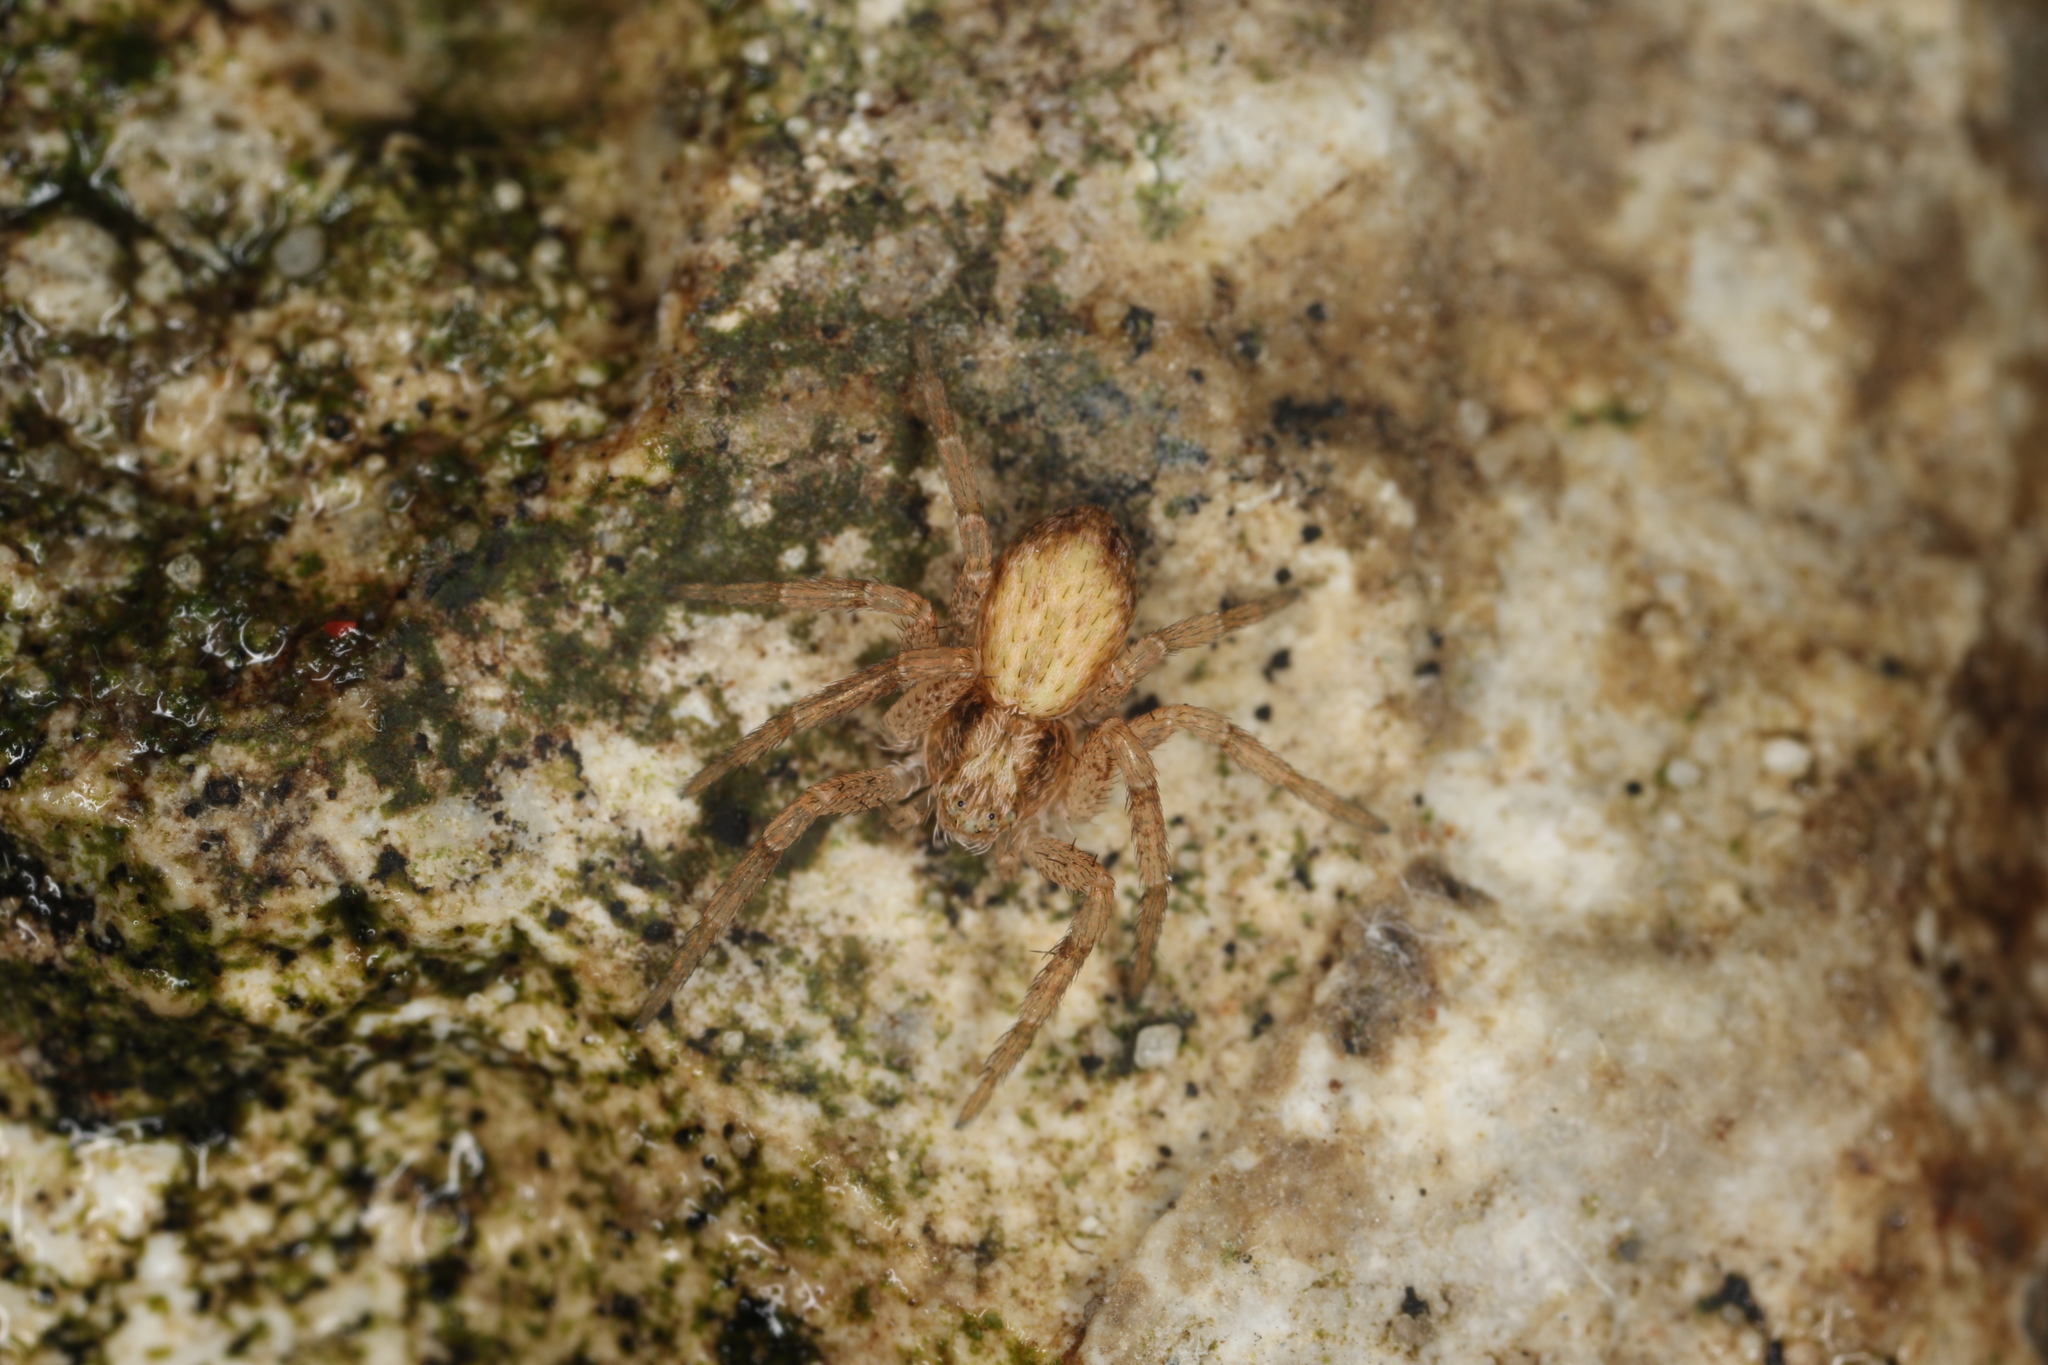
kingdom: Animalia
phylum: Arthropoda
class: Arachnida
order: Araneae
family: Philodromidae
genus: Philodromus
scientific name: Philodromus dispar
